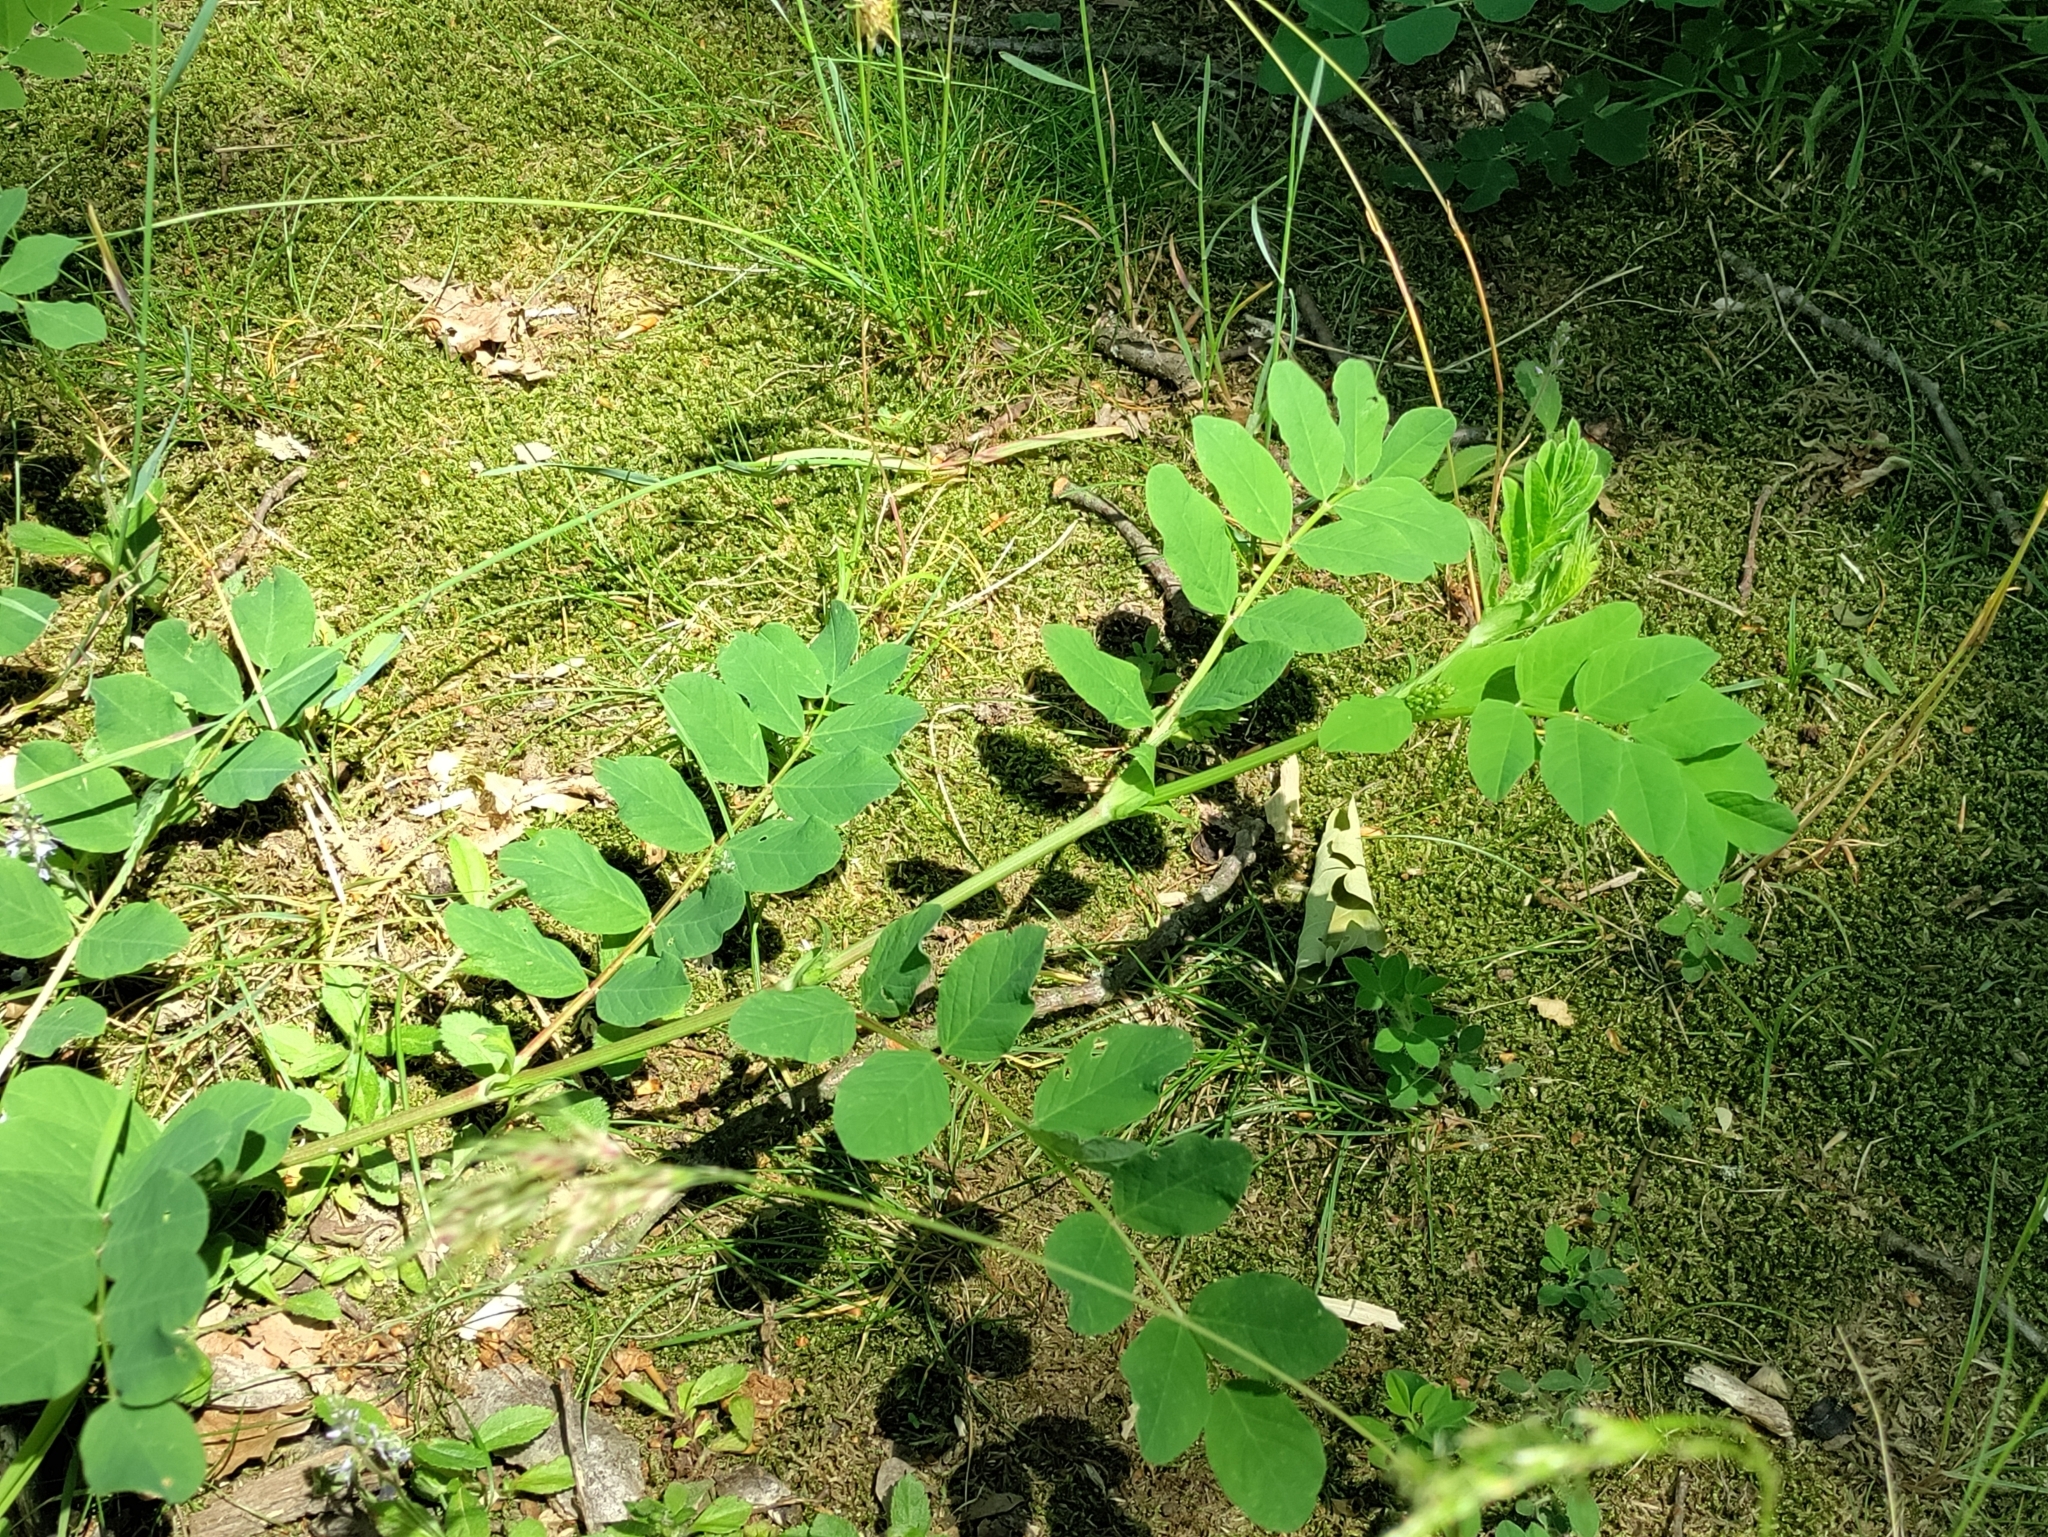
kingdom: Plantae
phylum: Tracheophyta
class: Magnoliopsida
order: Fabales
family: Fabaceae
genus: Astragalus
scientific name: Astragalus glycyphyllos
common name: Wild liquorice
